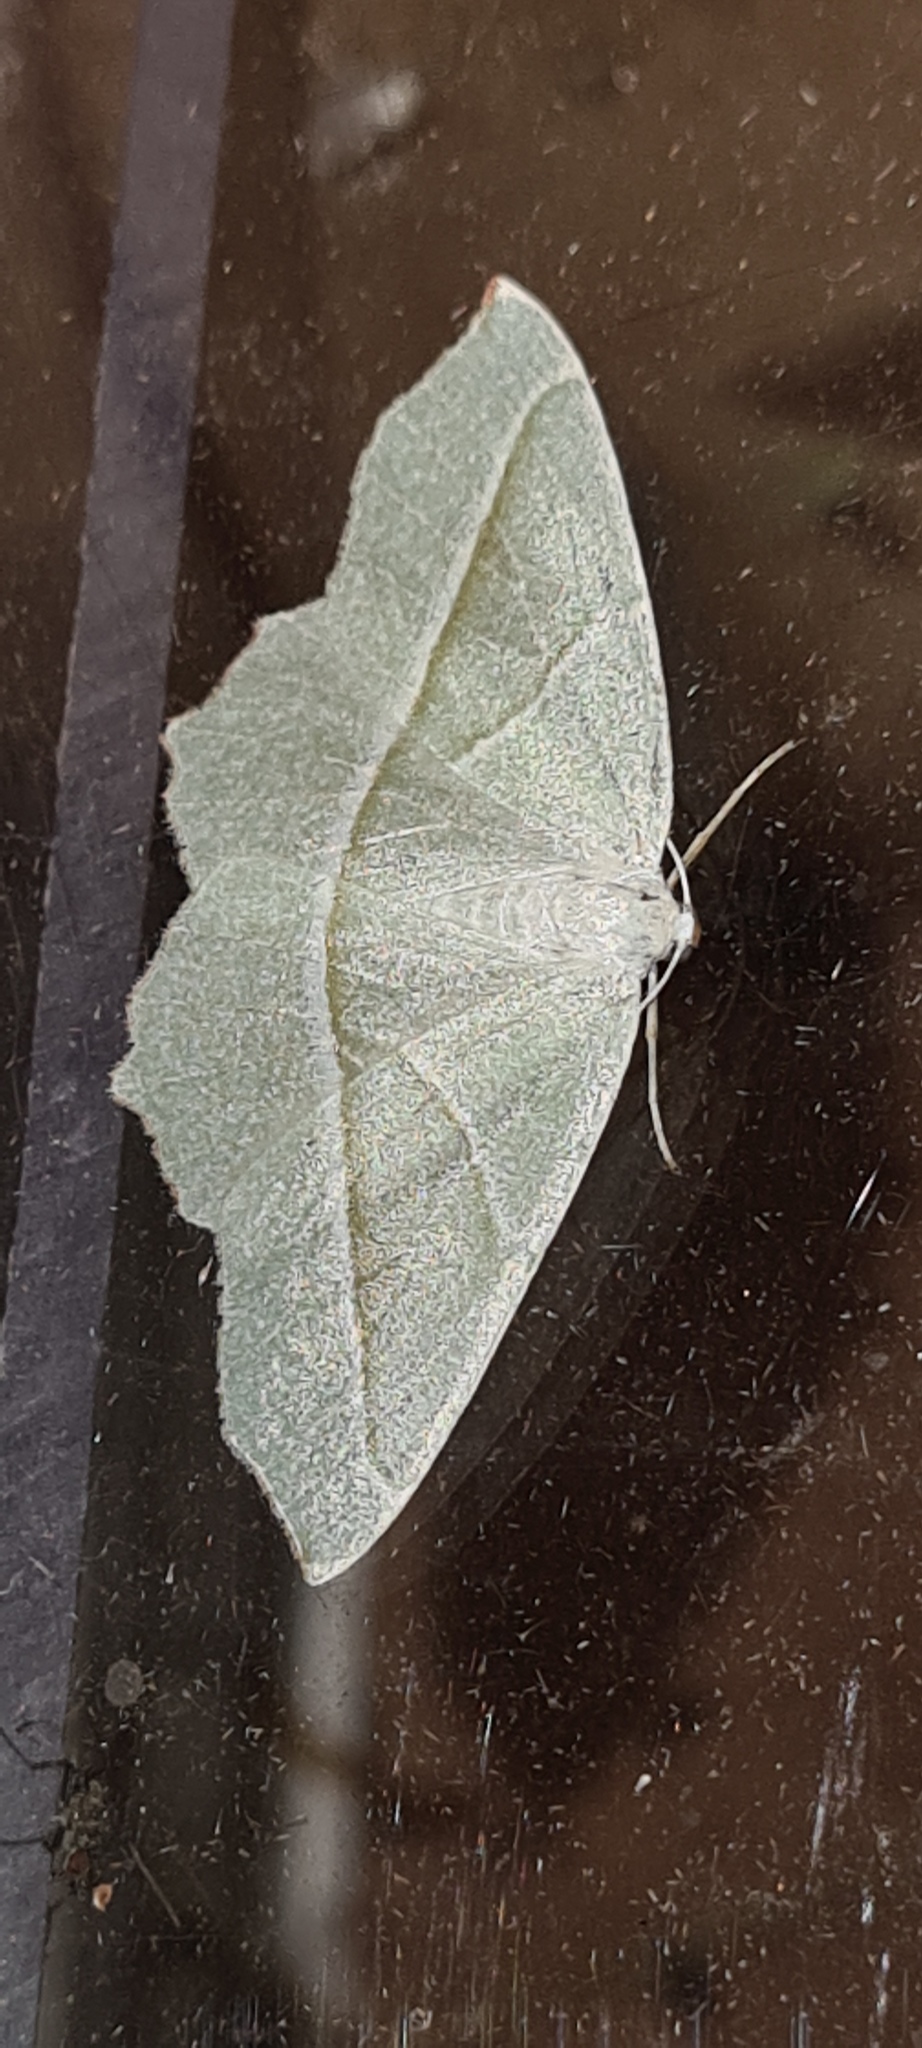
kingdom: Animalia
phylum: Arthropoda
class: Insecta
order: Lepidoptera
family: Geometridae
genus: Campaea
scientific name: Campaea margaritaria
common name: Light emerald
